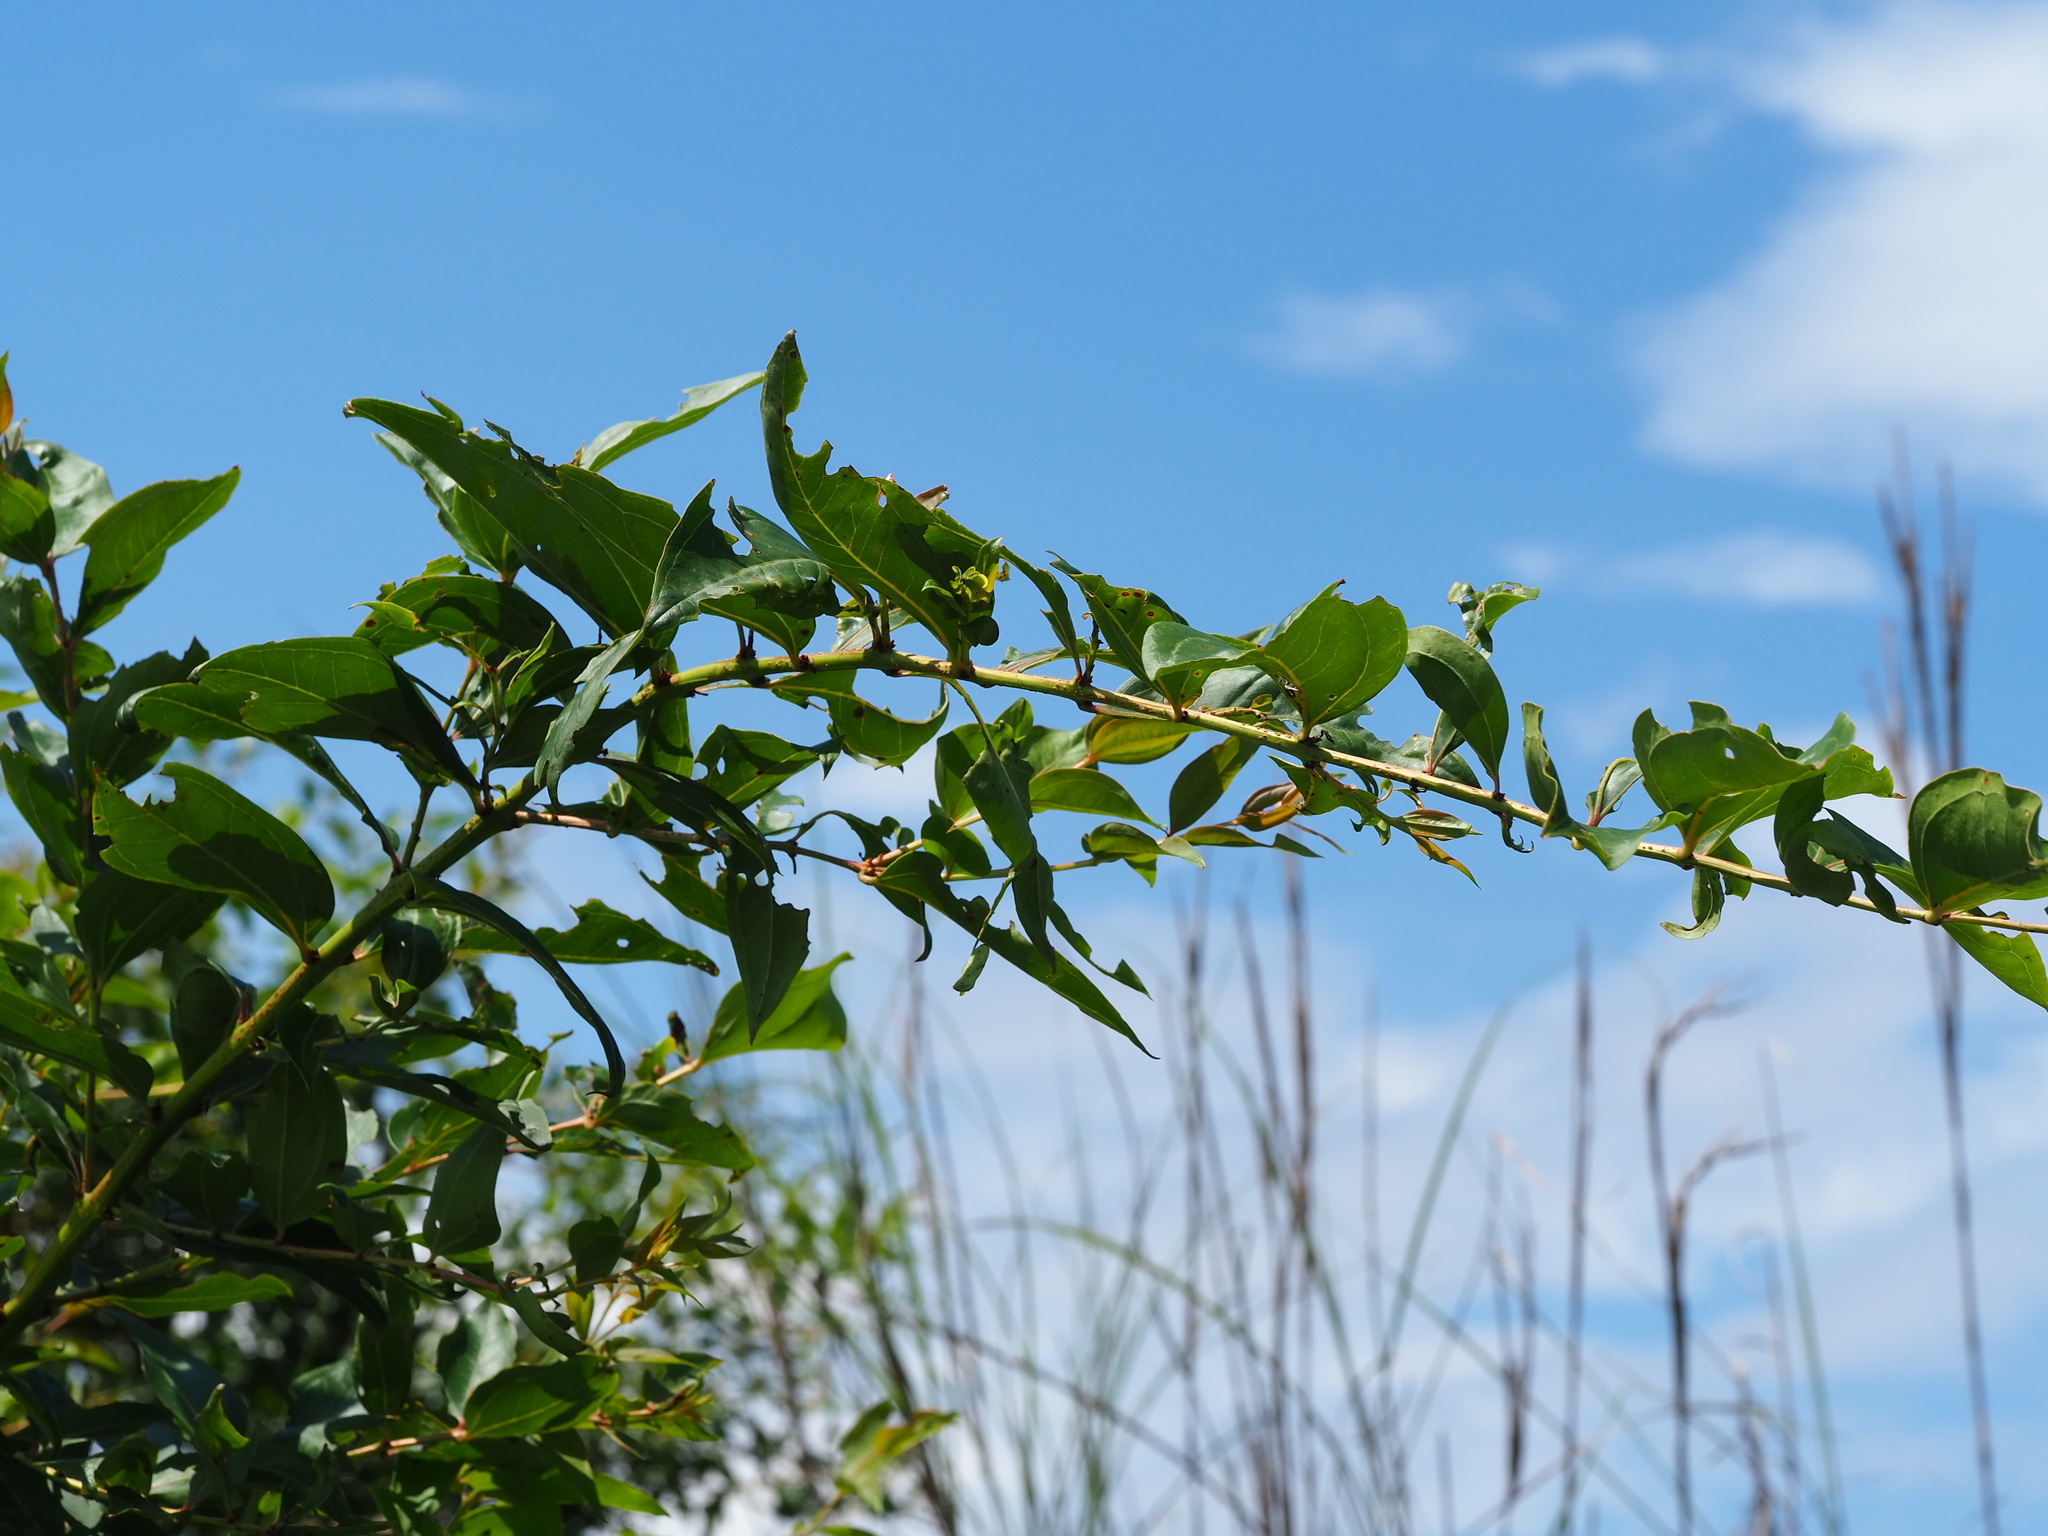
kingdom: Plantae
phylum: Tracheophyta
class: Magnoliopsida
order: Cucurbitales
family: Coriariaceae
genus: Coriaria
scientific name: Coriaria japonica
